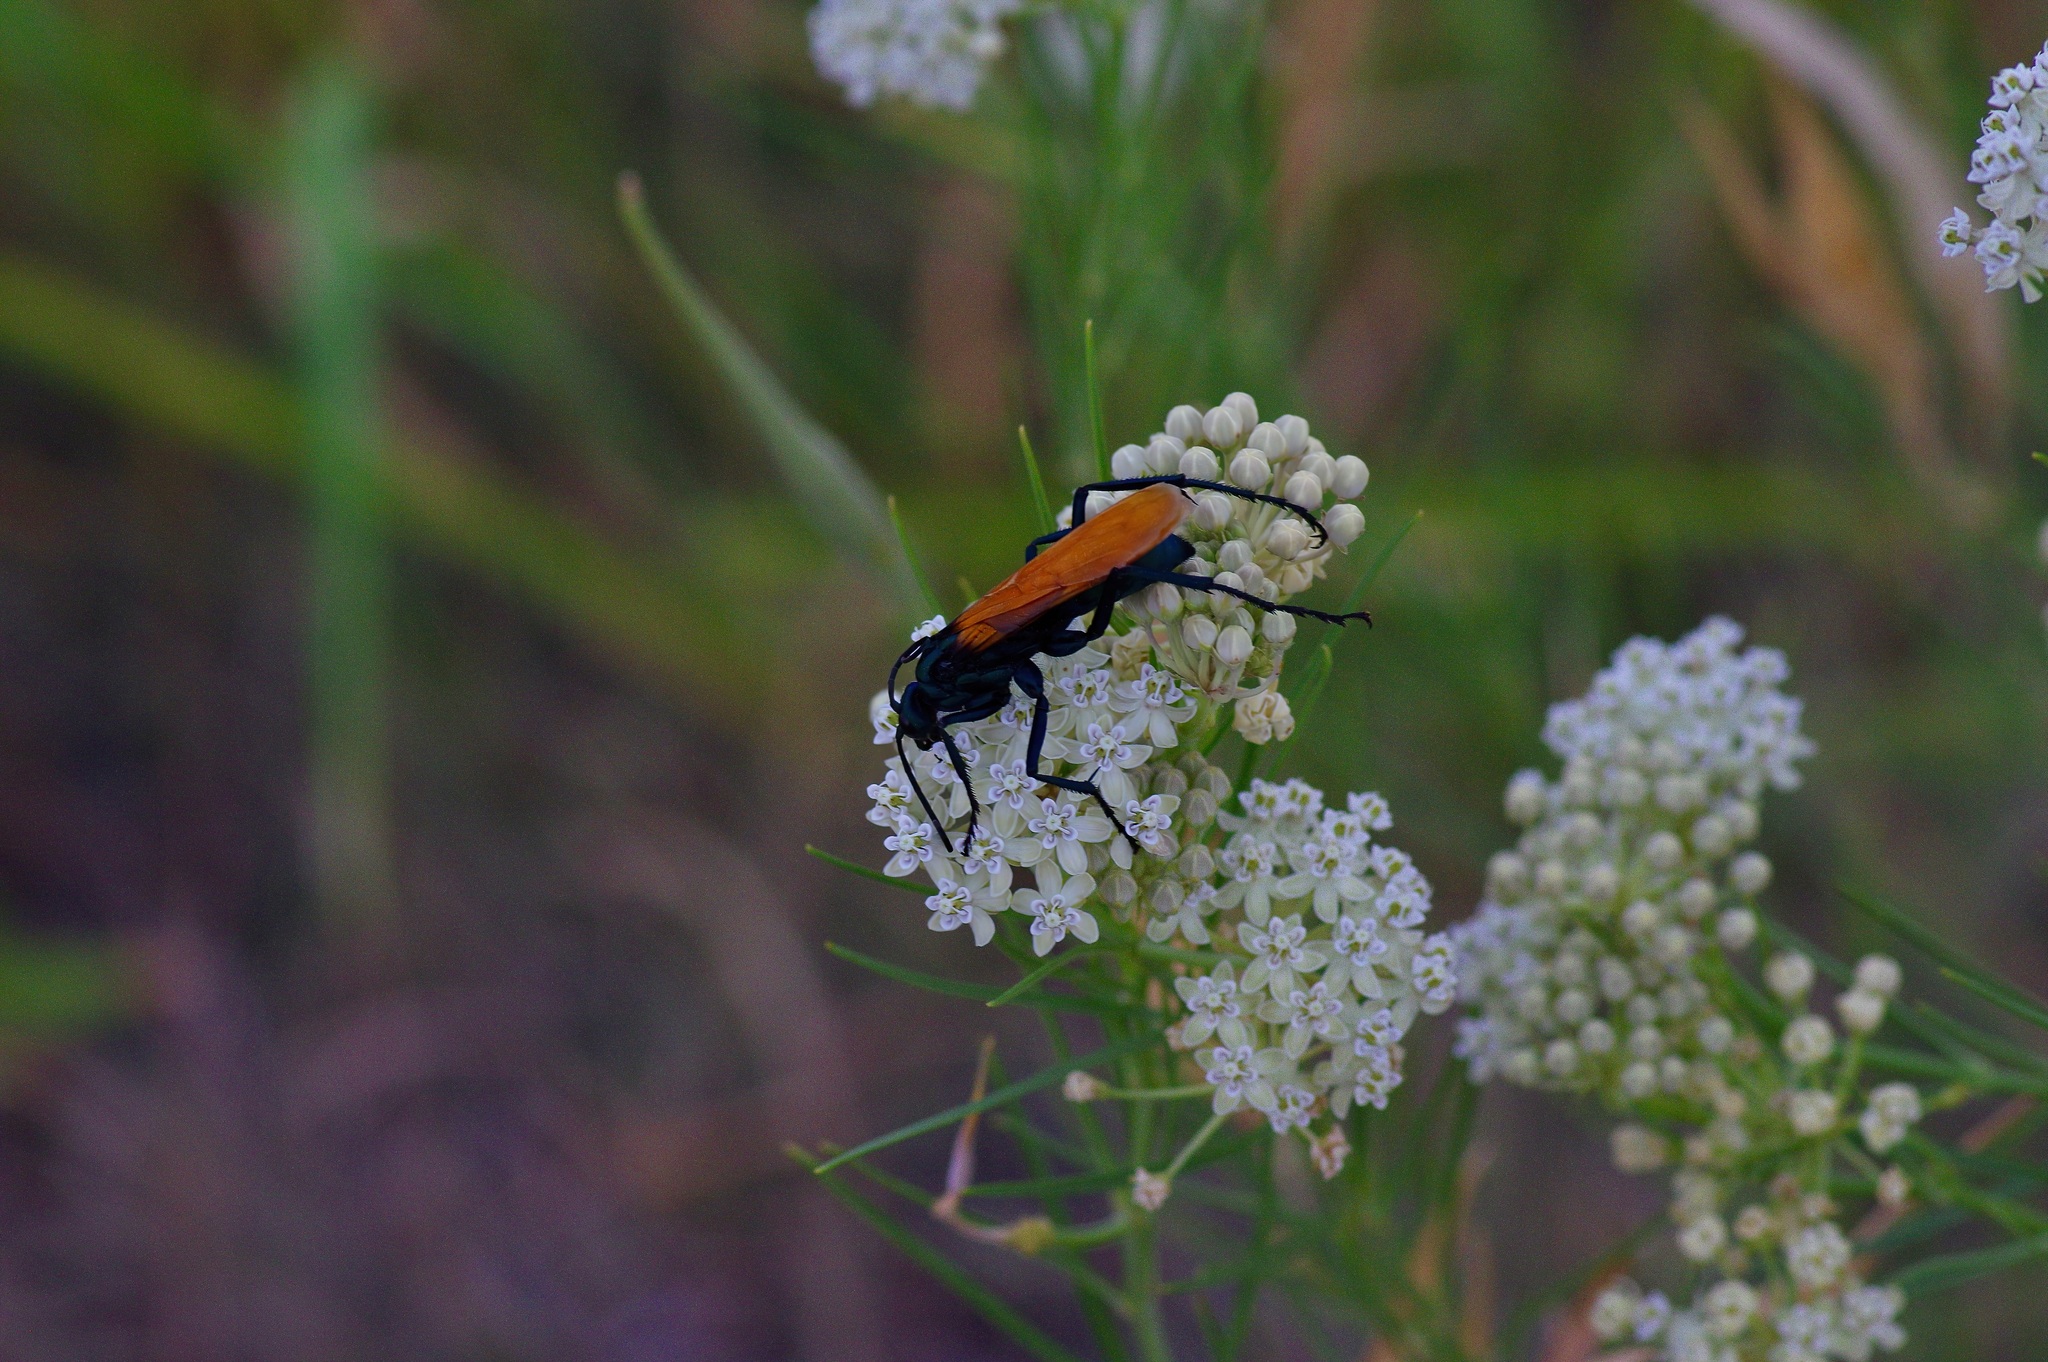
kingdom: Plantae
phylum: Tracheophyta
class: Magnoliopsida
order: Gentianales
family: Apocynaceae
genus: Asclepias
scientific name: Asclepias subverticillata
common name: Horsetail milkweed
